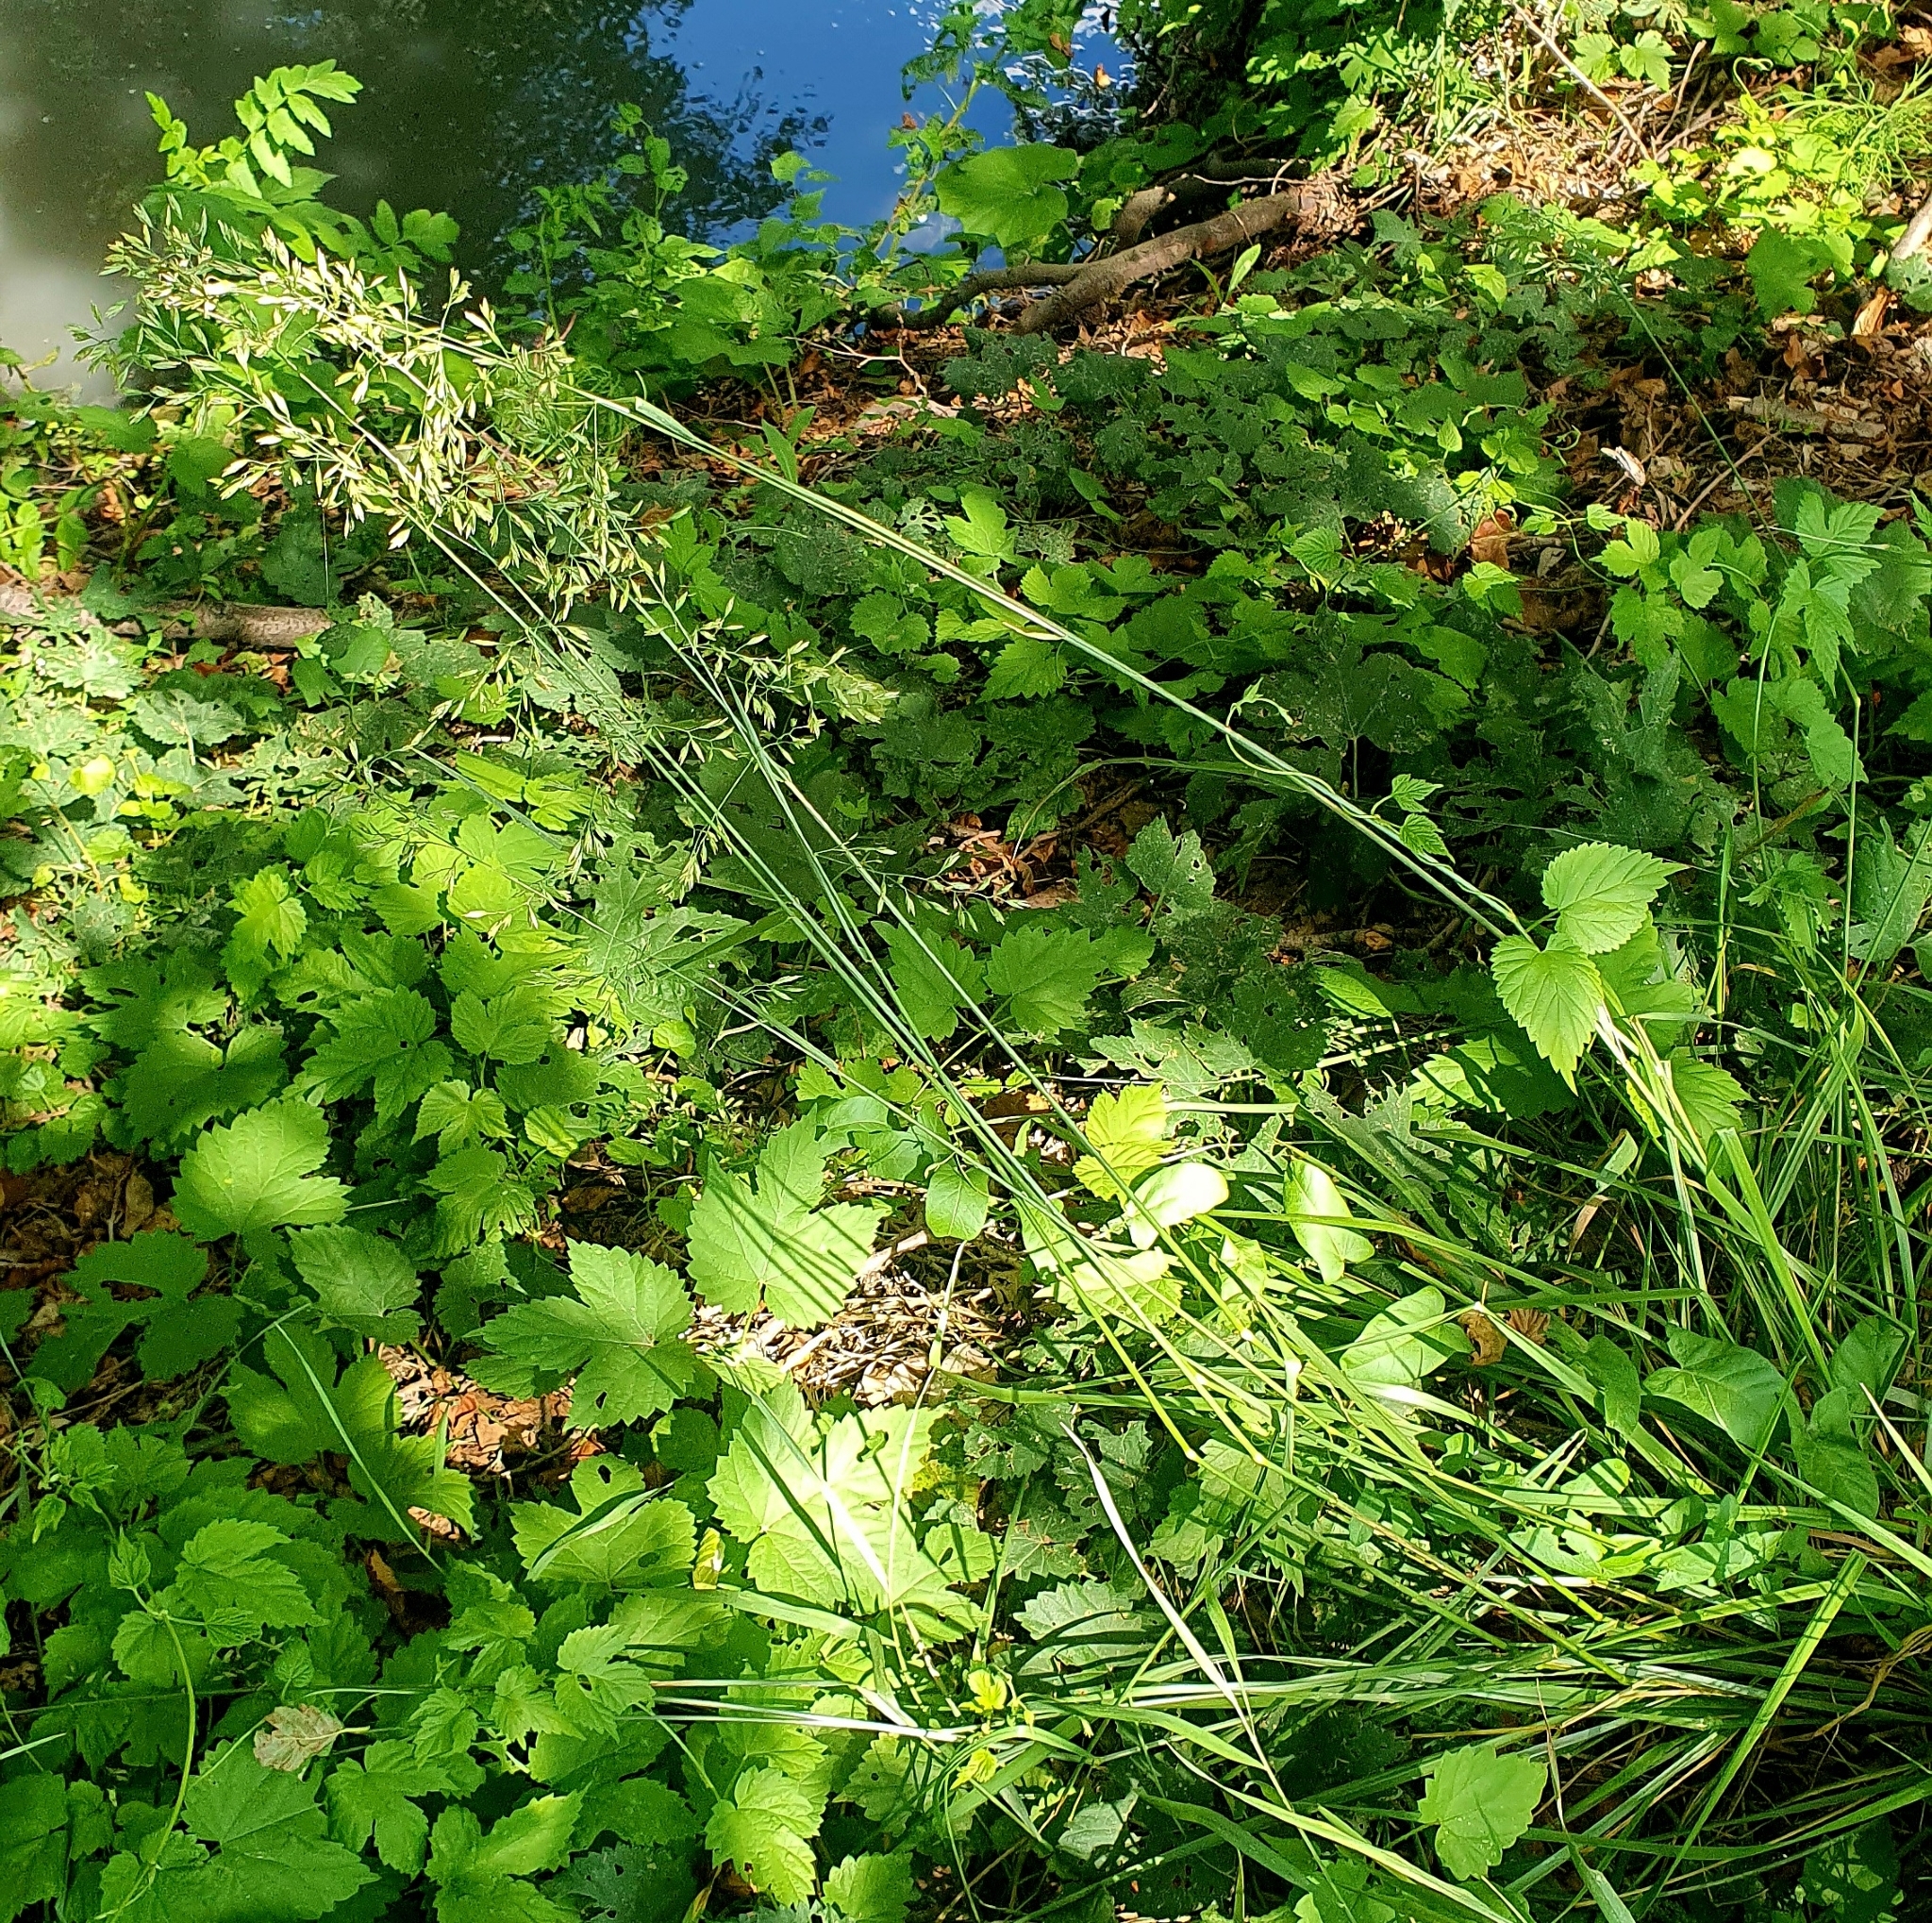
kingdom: Plantae
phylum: Tracheophyta
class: Liliopsida
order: Poales
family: Poaceae
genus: Lolium
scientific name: Lolium arundinaceum
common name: Reed fescue
